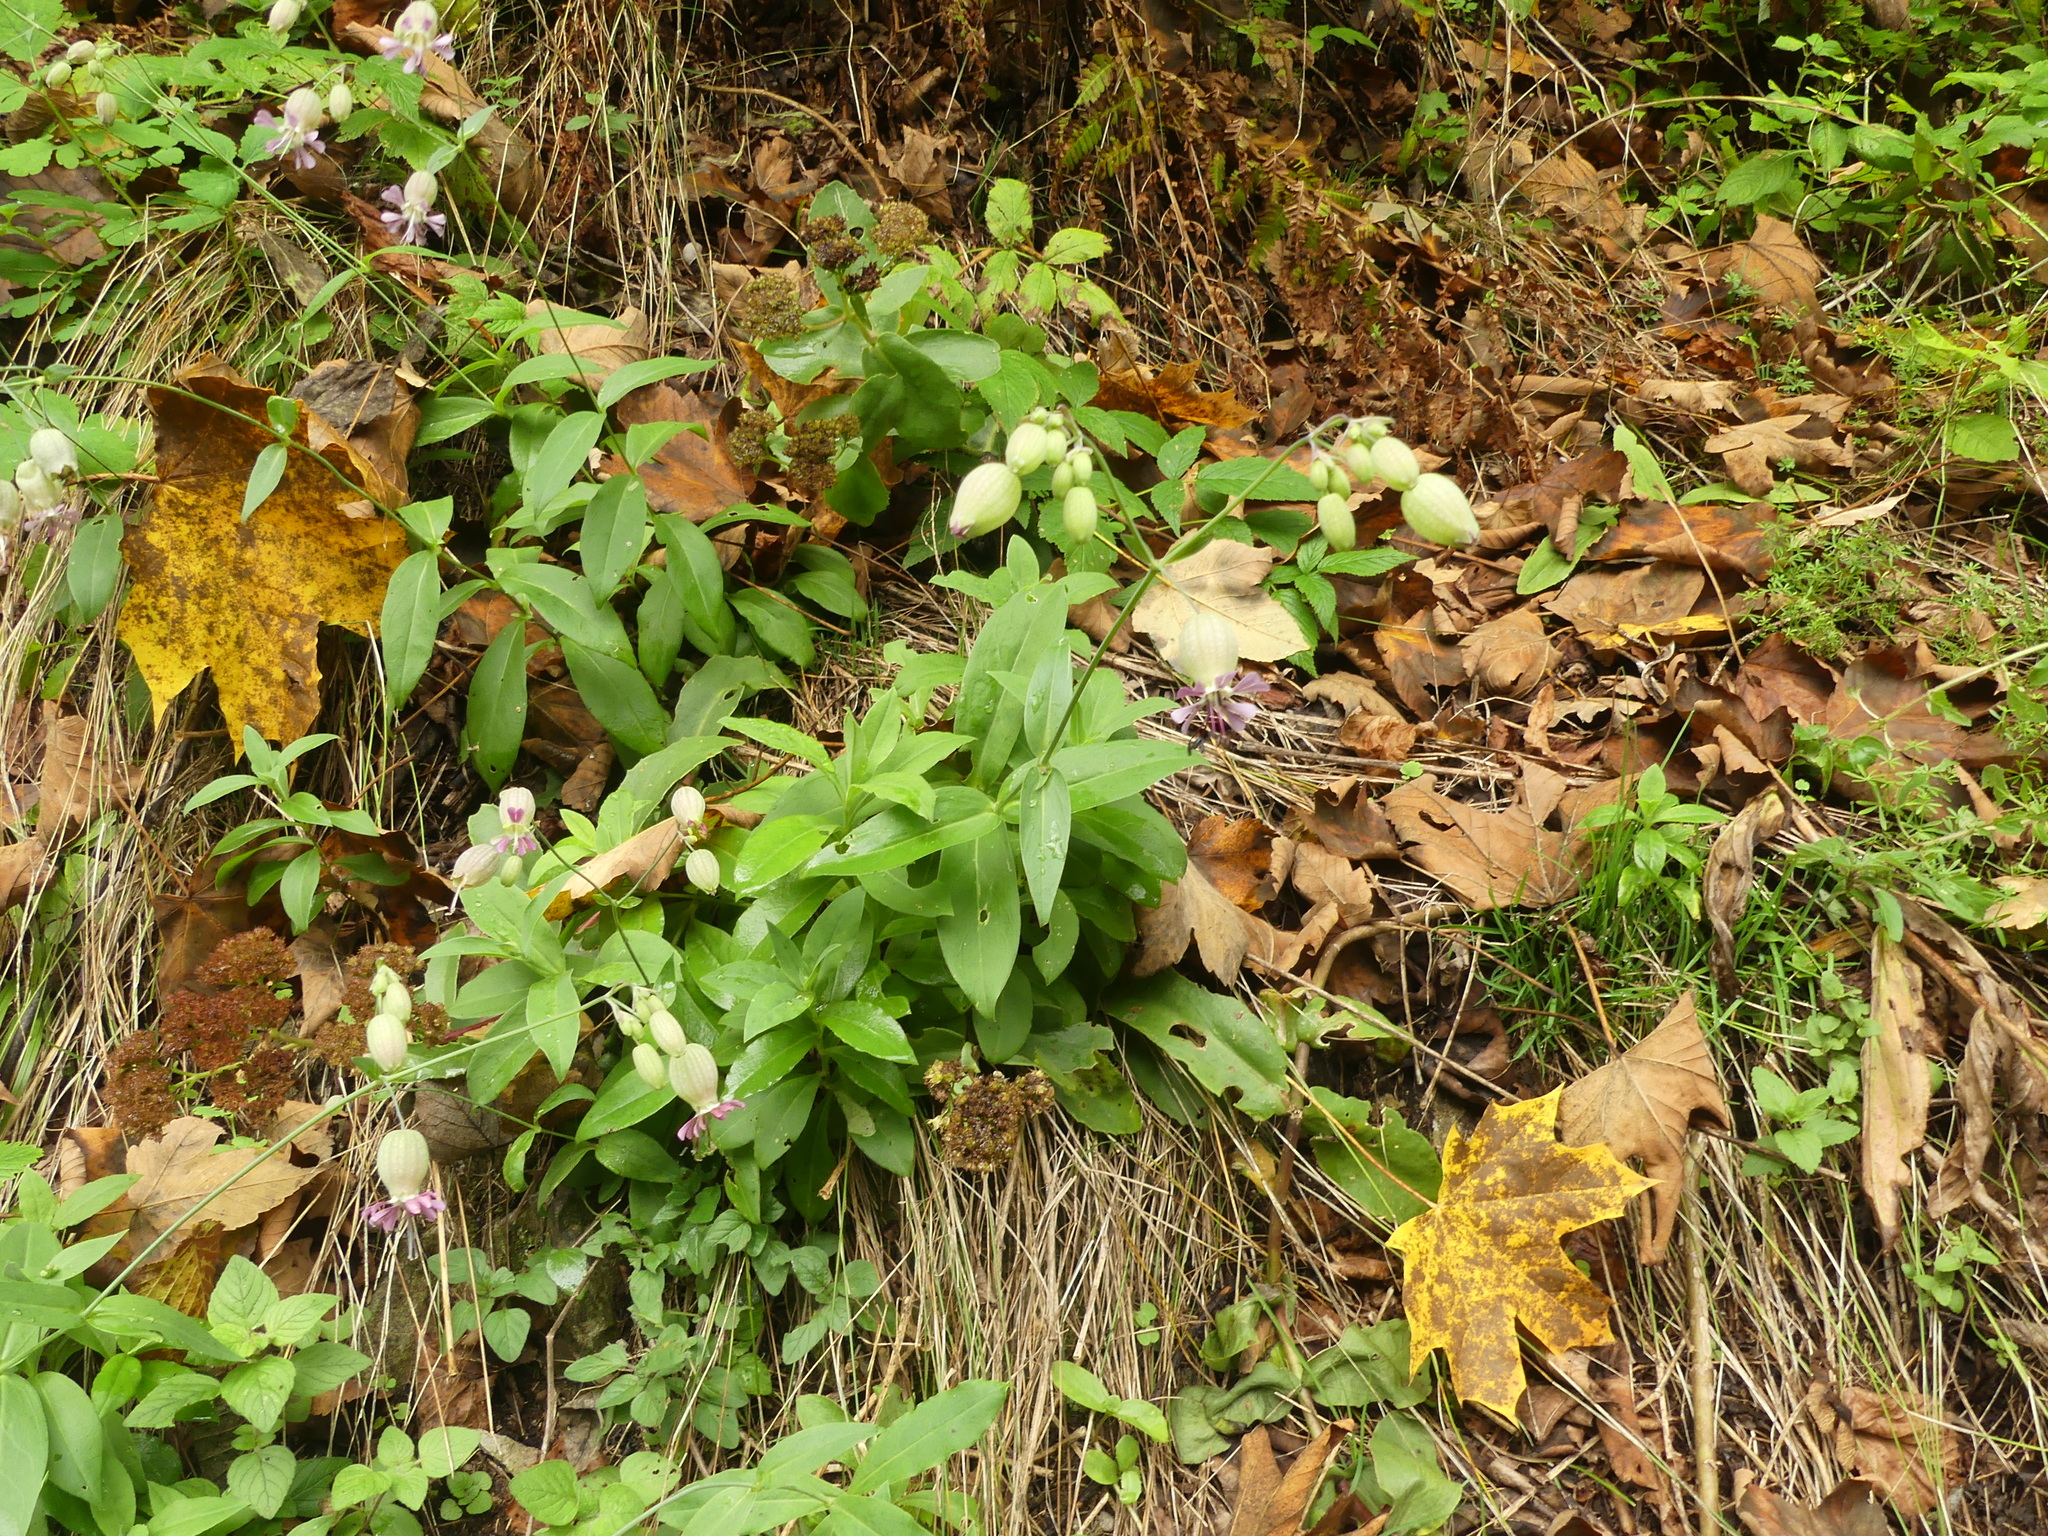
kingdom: Plantae
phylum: Tracheophyta
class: Magnoliopsida
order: Caryophyllales
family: Caryophyllaceae
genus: Silene
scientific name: Silene vulgaris
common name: Bladder campion
